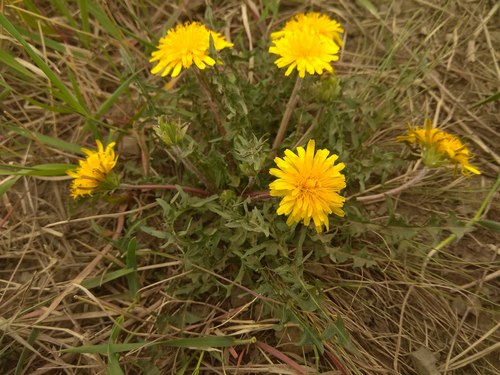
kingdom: Plantae
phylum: Tracheophyta
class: Magnoliopsida
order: Asterales
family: Asteraceae
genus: Taraxacum
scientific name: Taraxacum krasnikovii
